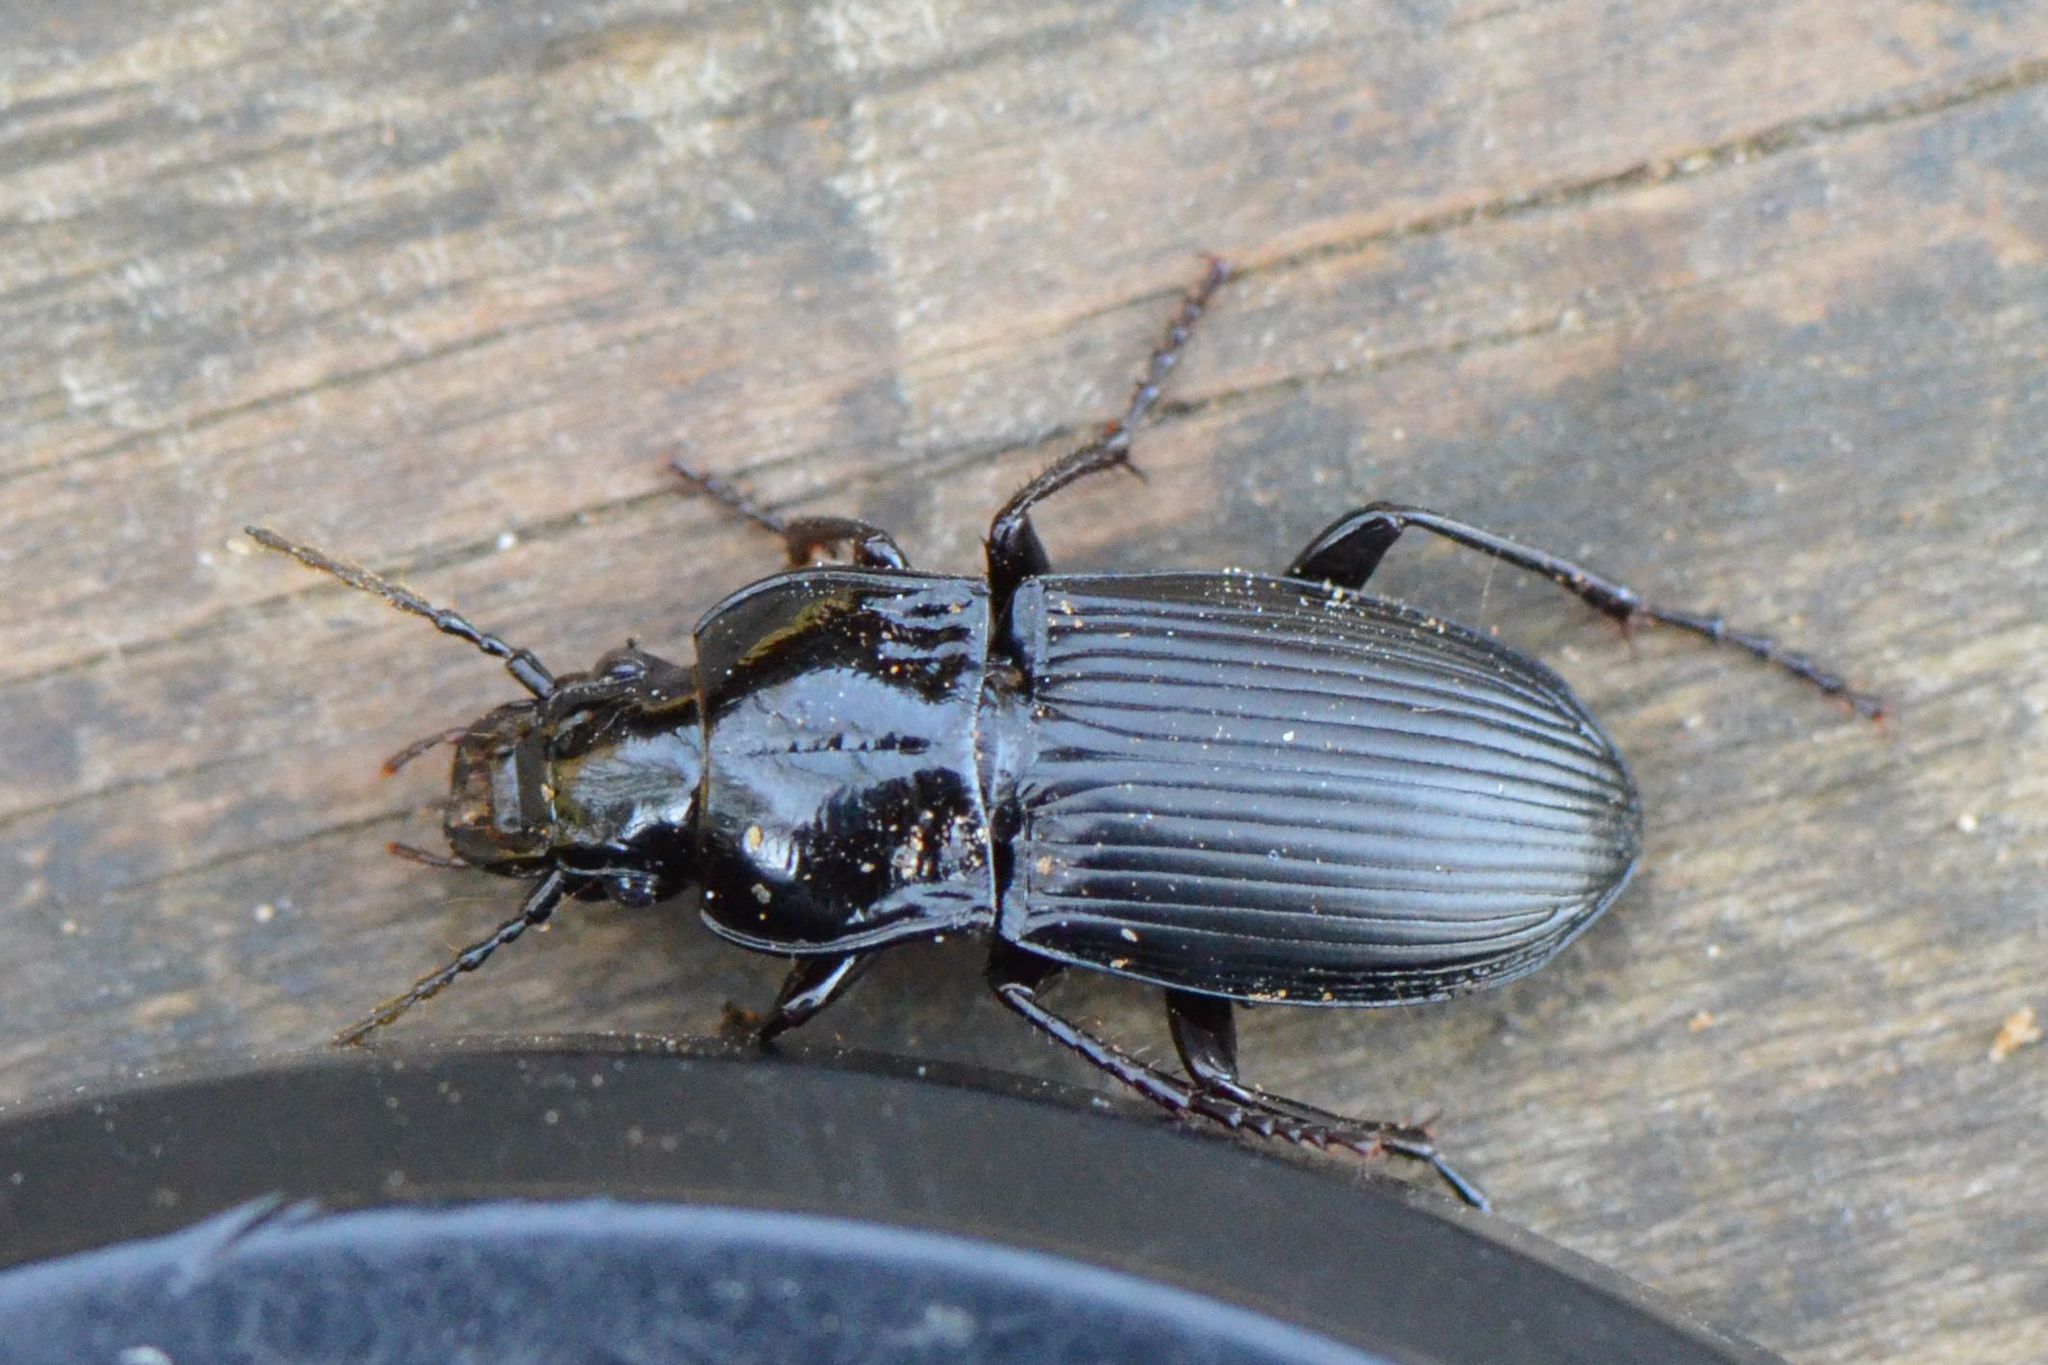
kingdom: Animalia
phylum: Arthropoda
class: Insecta
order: Coleoptera
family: Carabidae
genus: Abax
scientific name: Abax parallelepipedus
